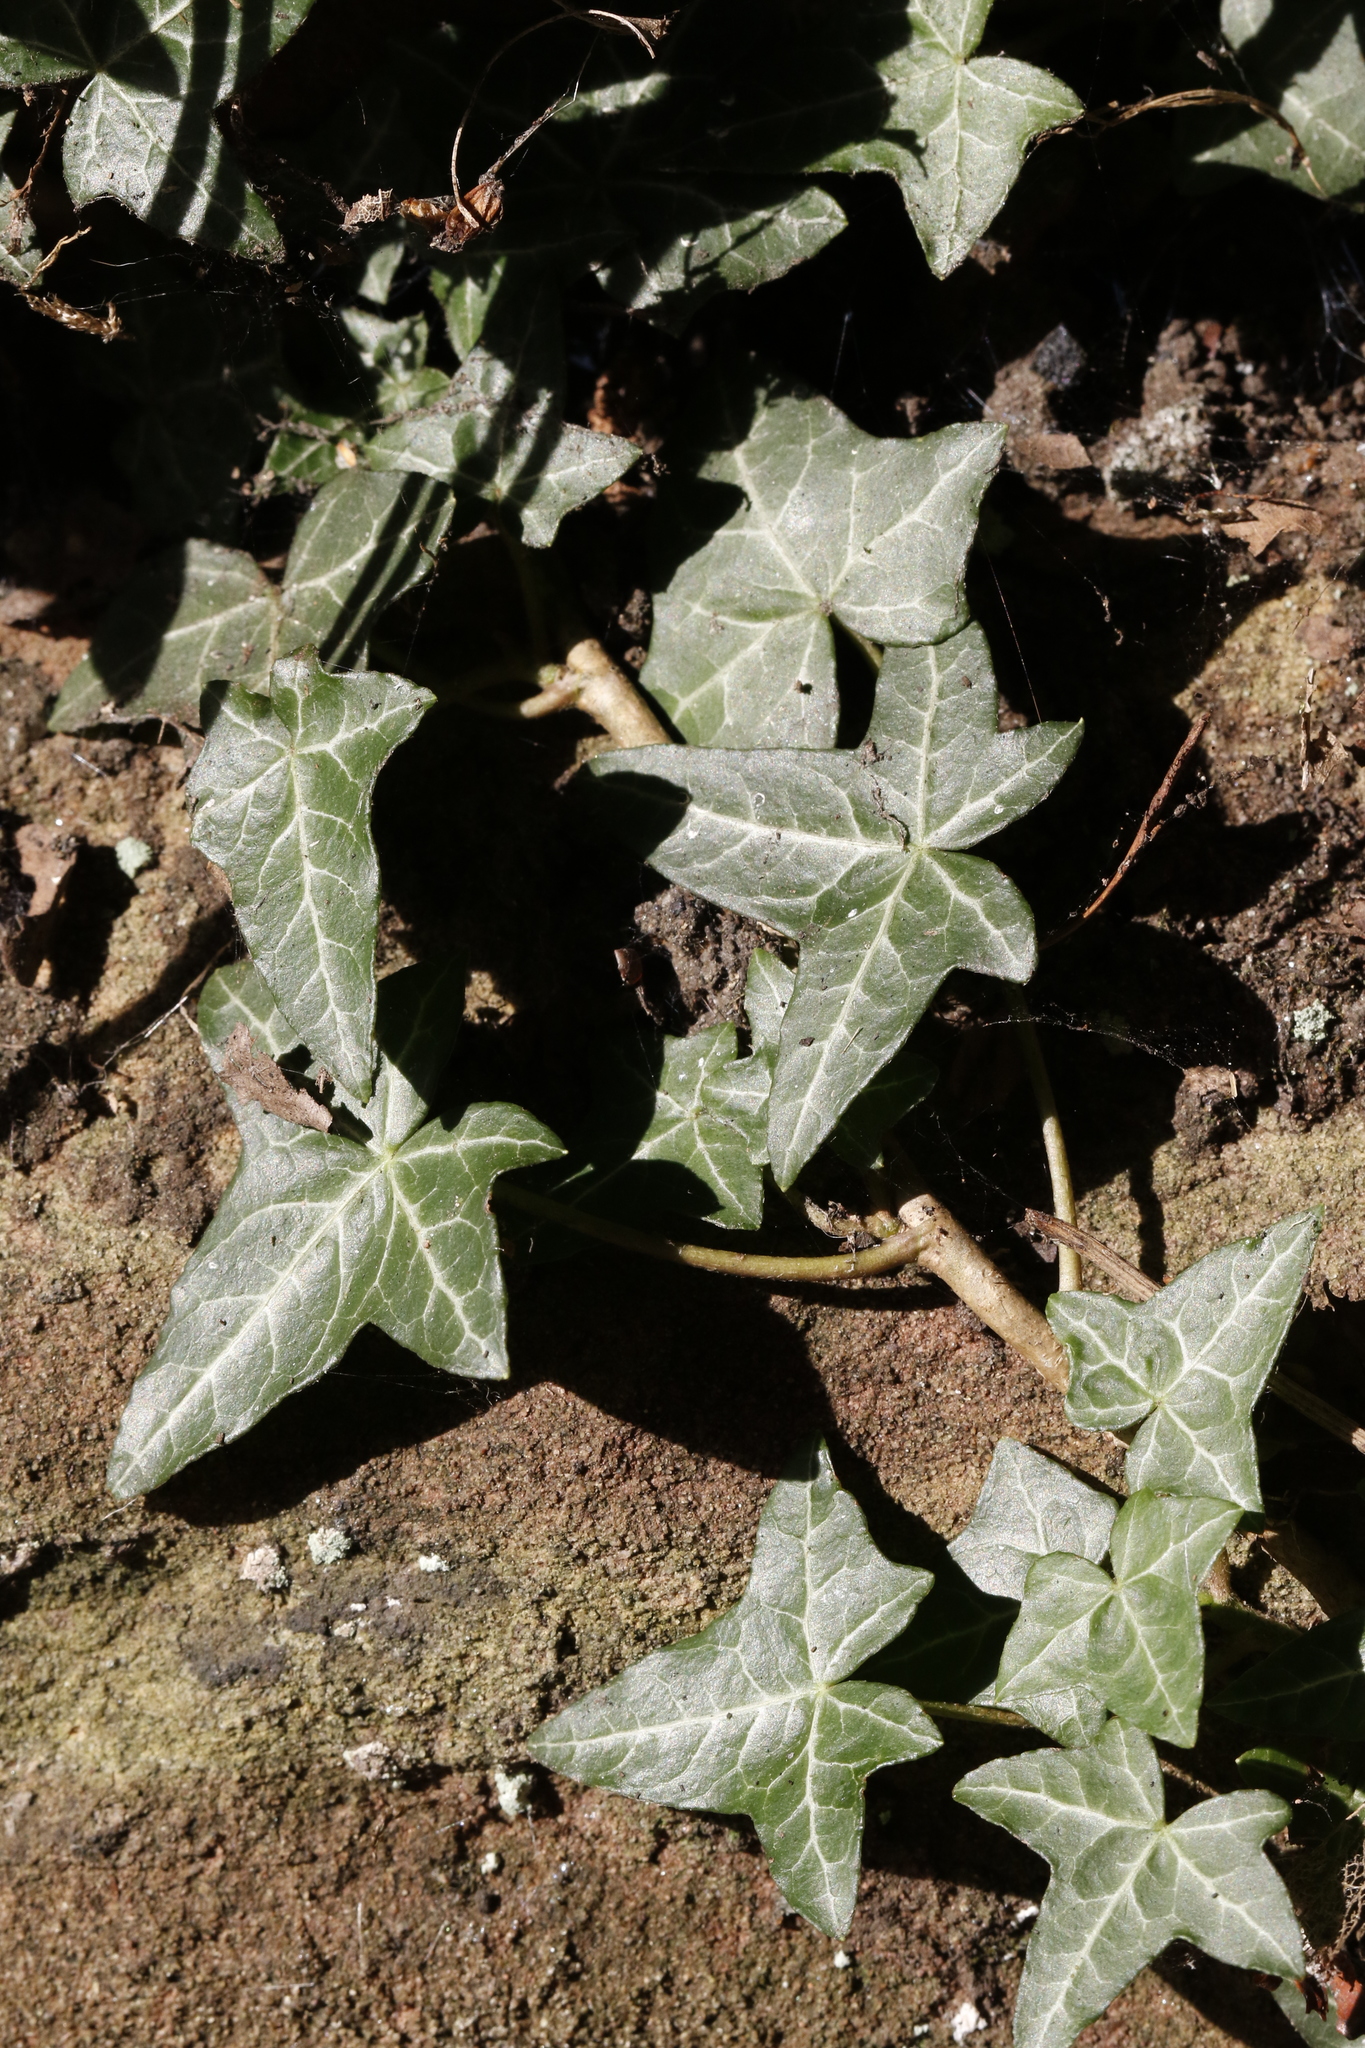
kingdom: Plantae
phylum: Tracheophyta
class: Magnoliopsida
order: Apiales
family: Araliaceae
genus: Hedera
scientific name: Hedera helix
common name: Ivy
